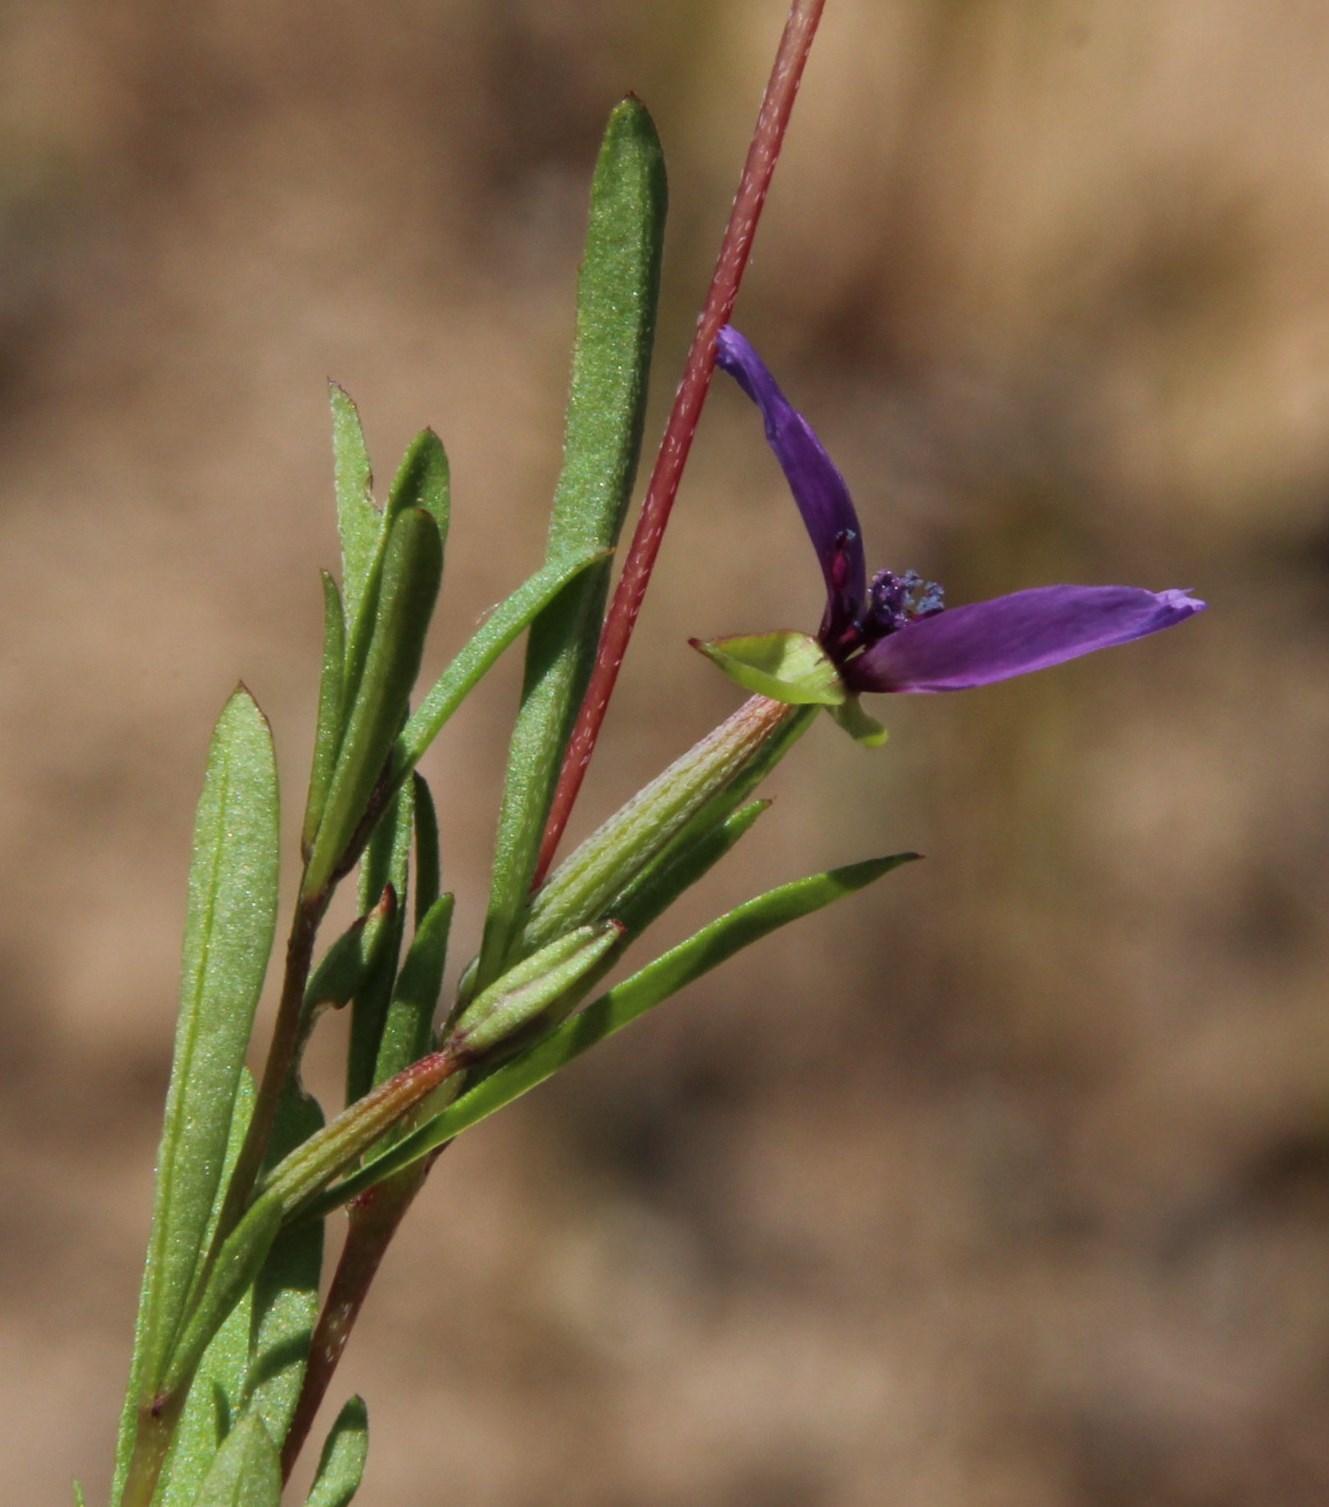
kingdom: Plantae
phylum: Tracheophyta
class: Magnoliopsida
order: Myrtales
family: Onagraceae
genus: Clarkia
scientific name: Clarkia tenella
